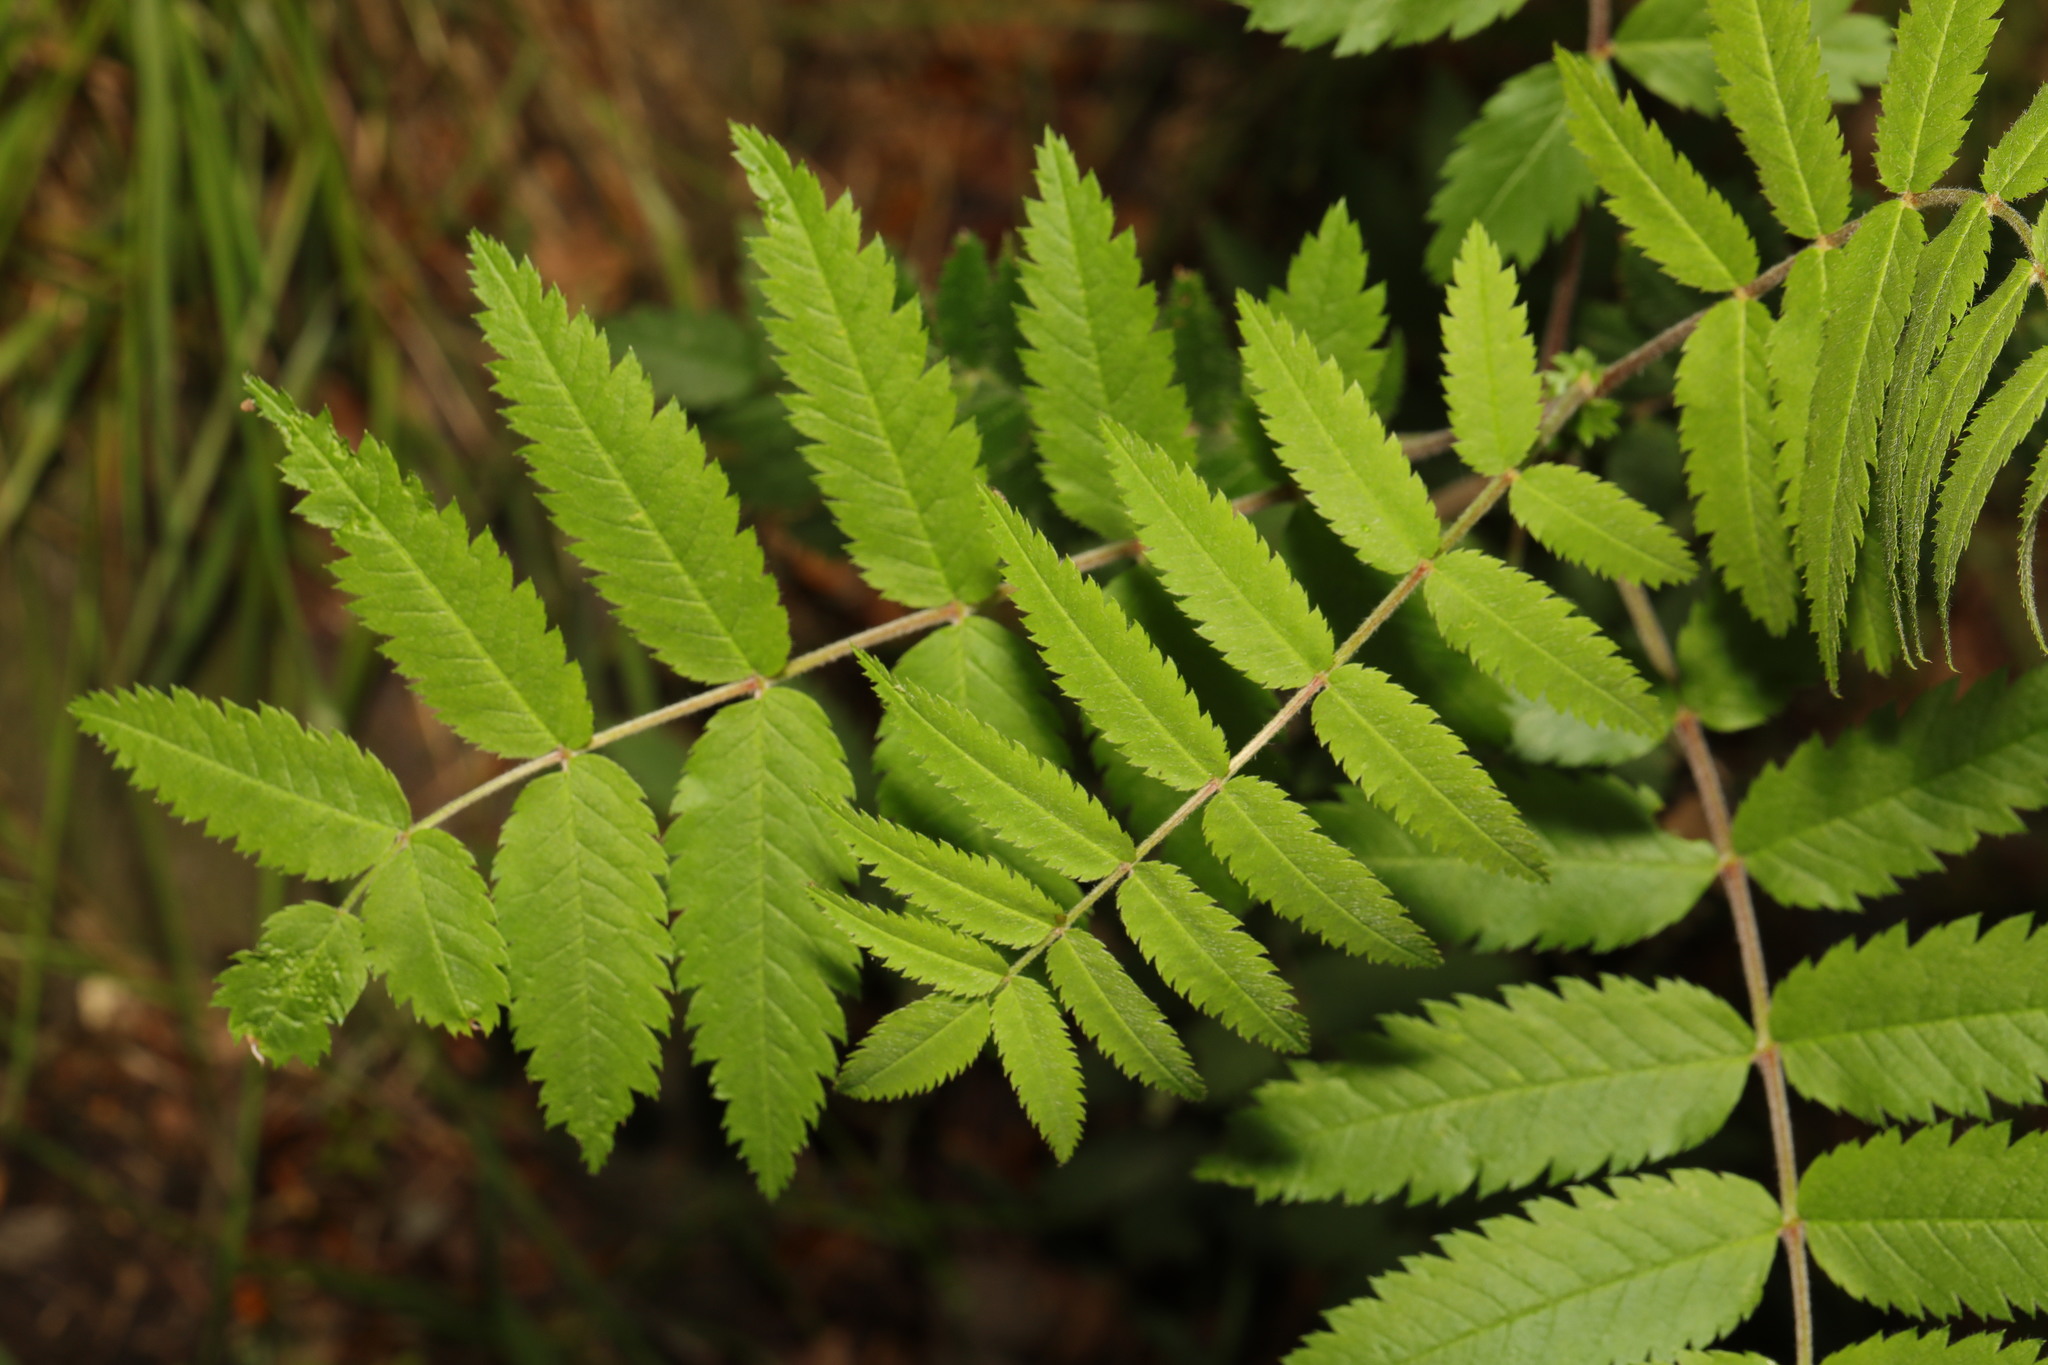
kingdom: Plantae
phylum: Tracheophyta
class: Magnoliopsida
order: Rosales
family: Rosaceae
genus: Sorbus
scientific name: Sorbus aucuparia
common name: Rowan
